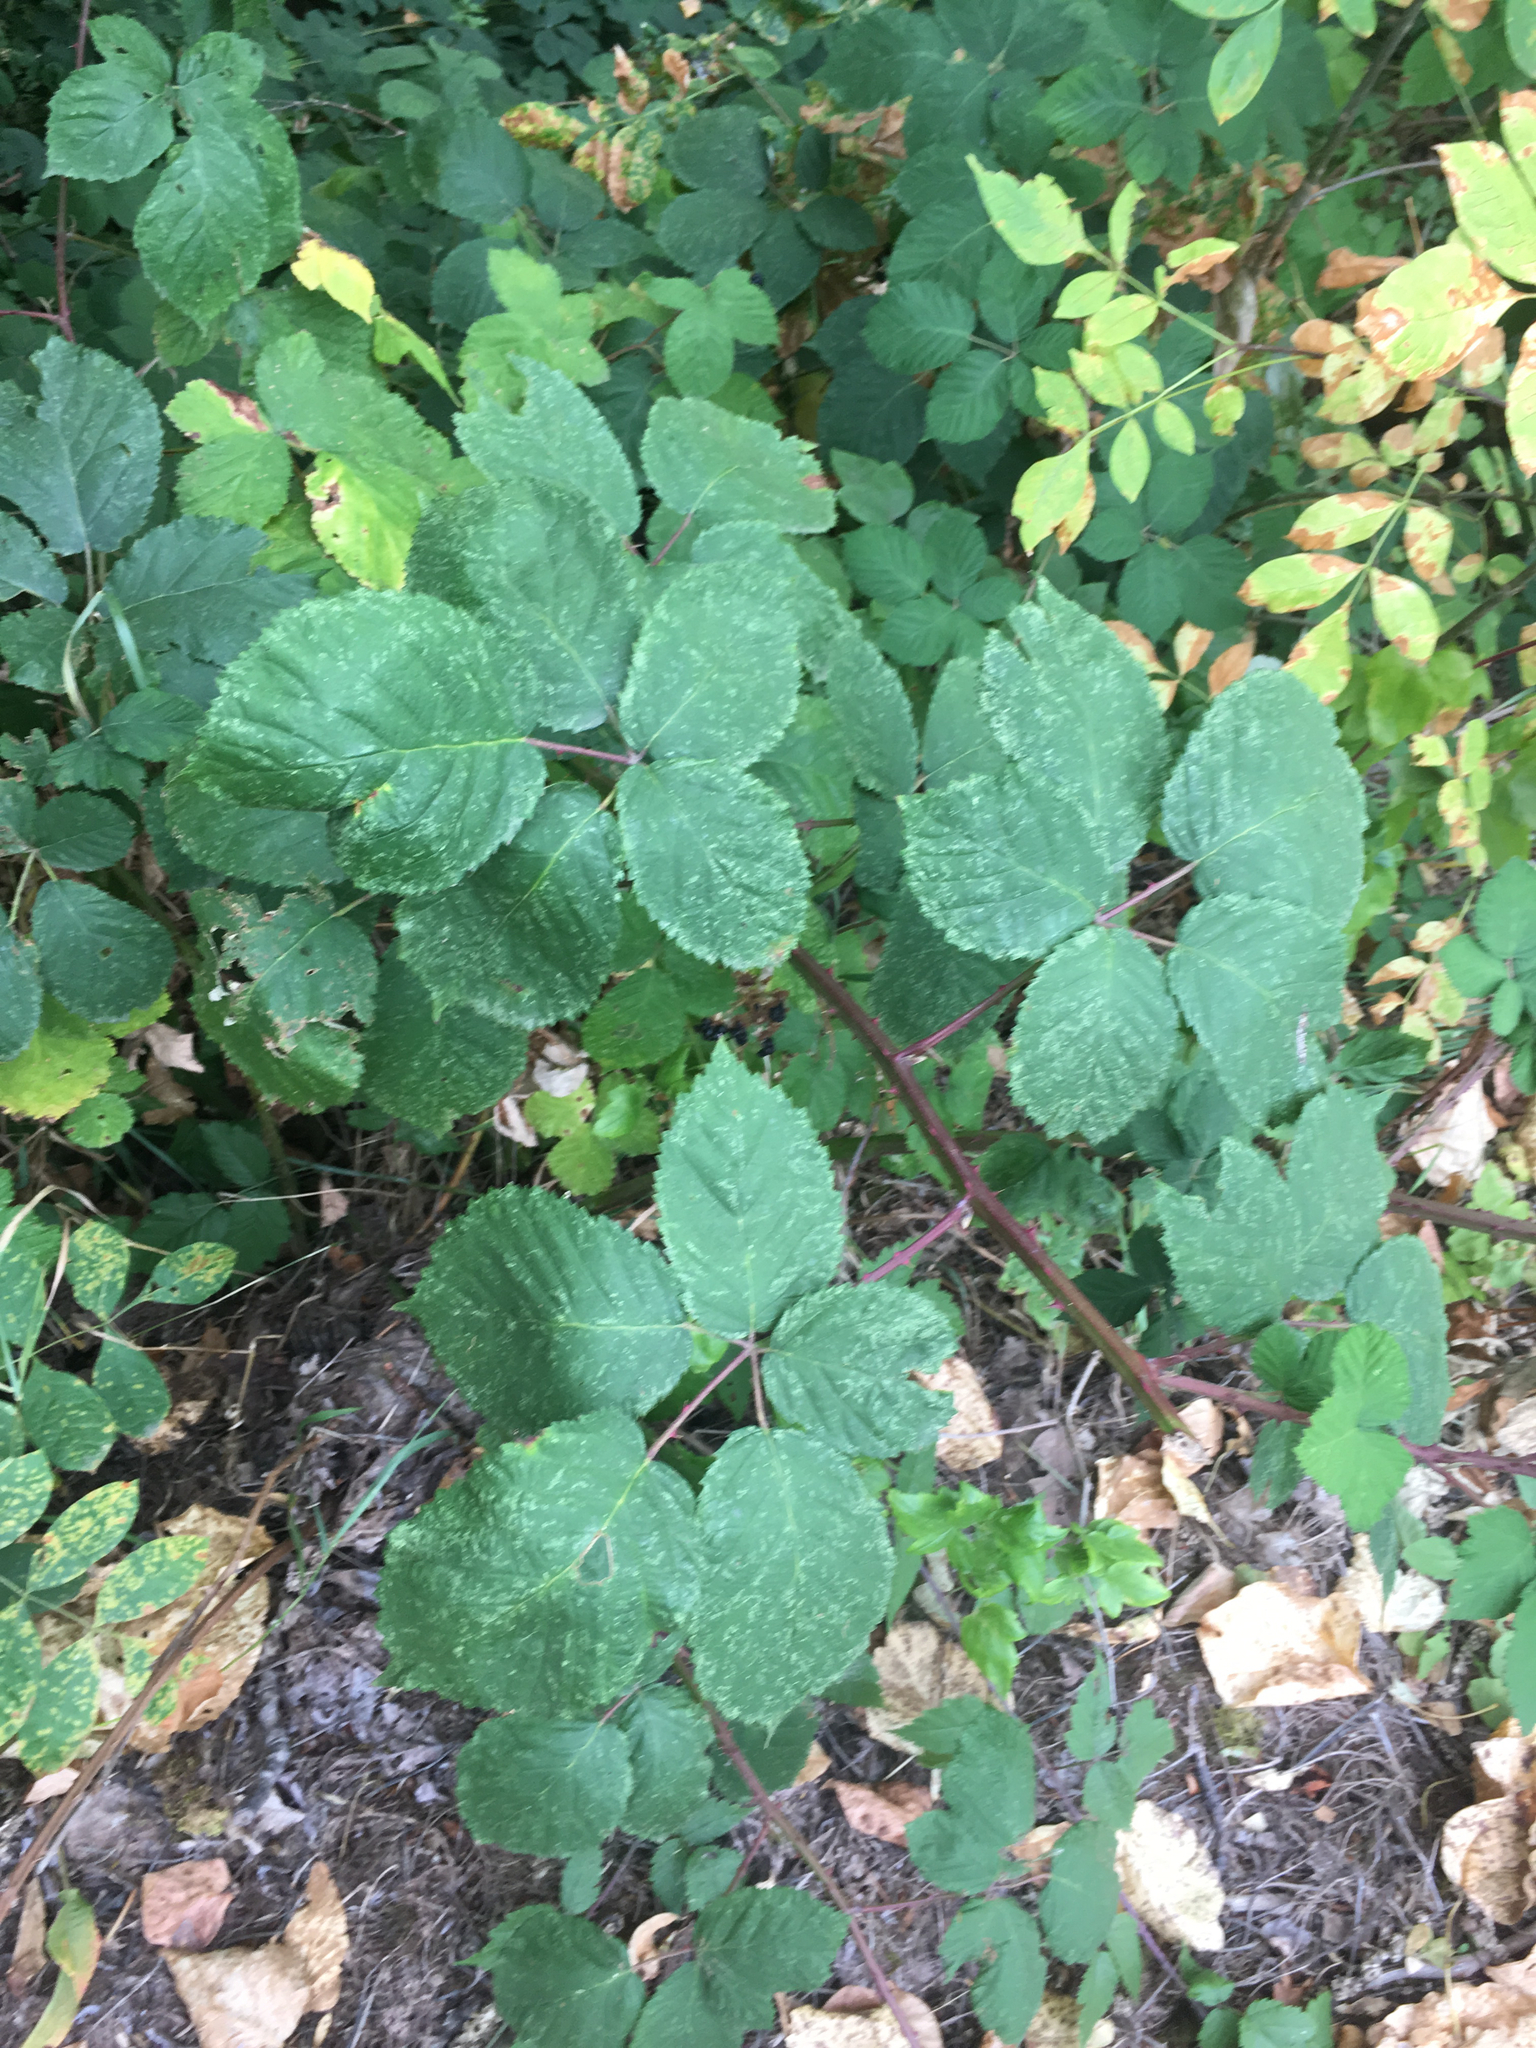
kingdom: Plantae
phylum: Tracheophyta
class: Magnoliopsida
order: Rosales
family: Rosaceae
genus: Rubus
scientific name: Rubus armeniacus
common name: Himalayan blackberry
